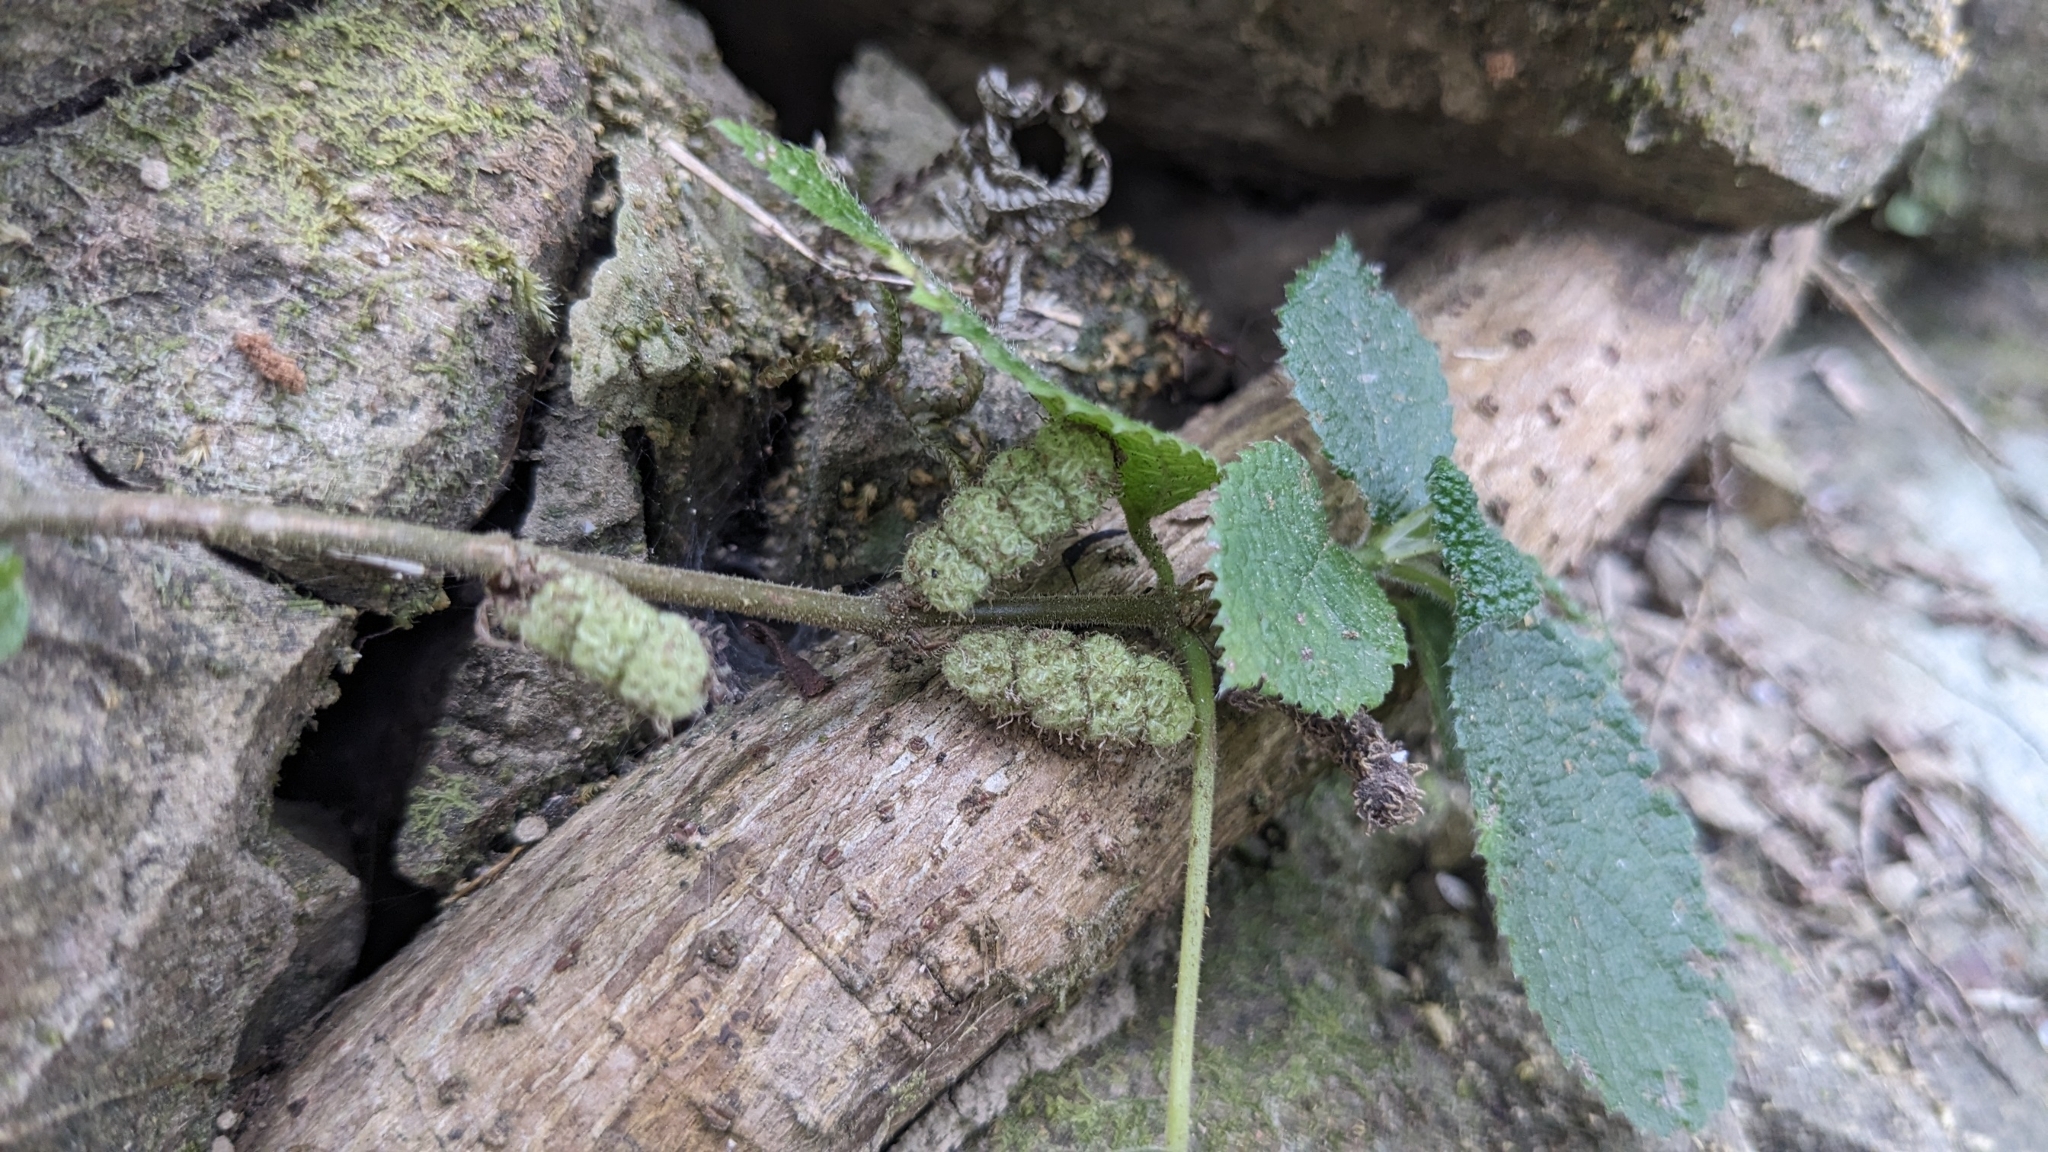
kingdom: Plantae
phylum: Tracheophyta
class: Magnoliopsida
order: Rosales
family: Urticaceae
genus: Boehmeria
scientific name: Boehmeria pilosiuscula
